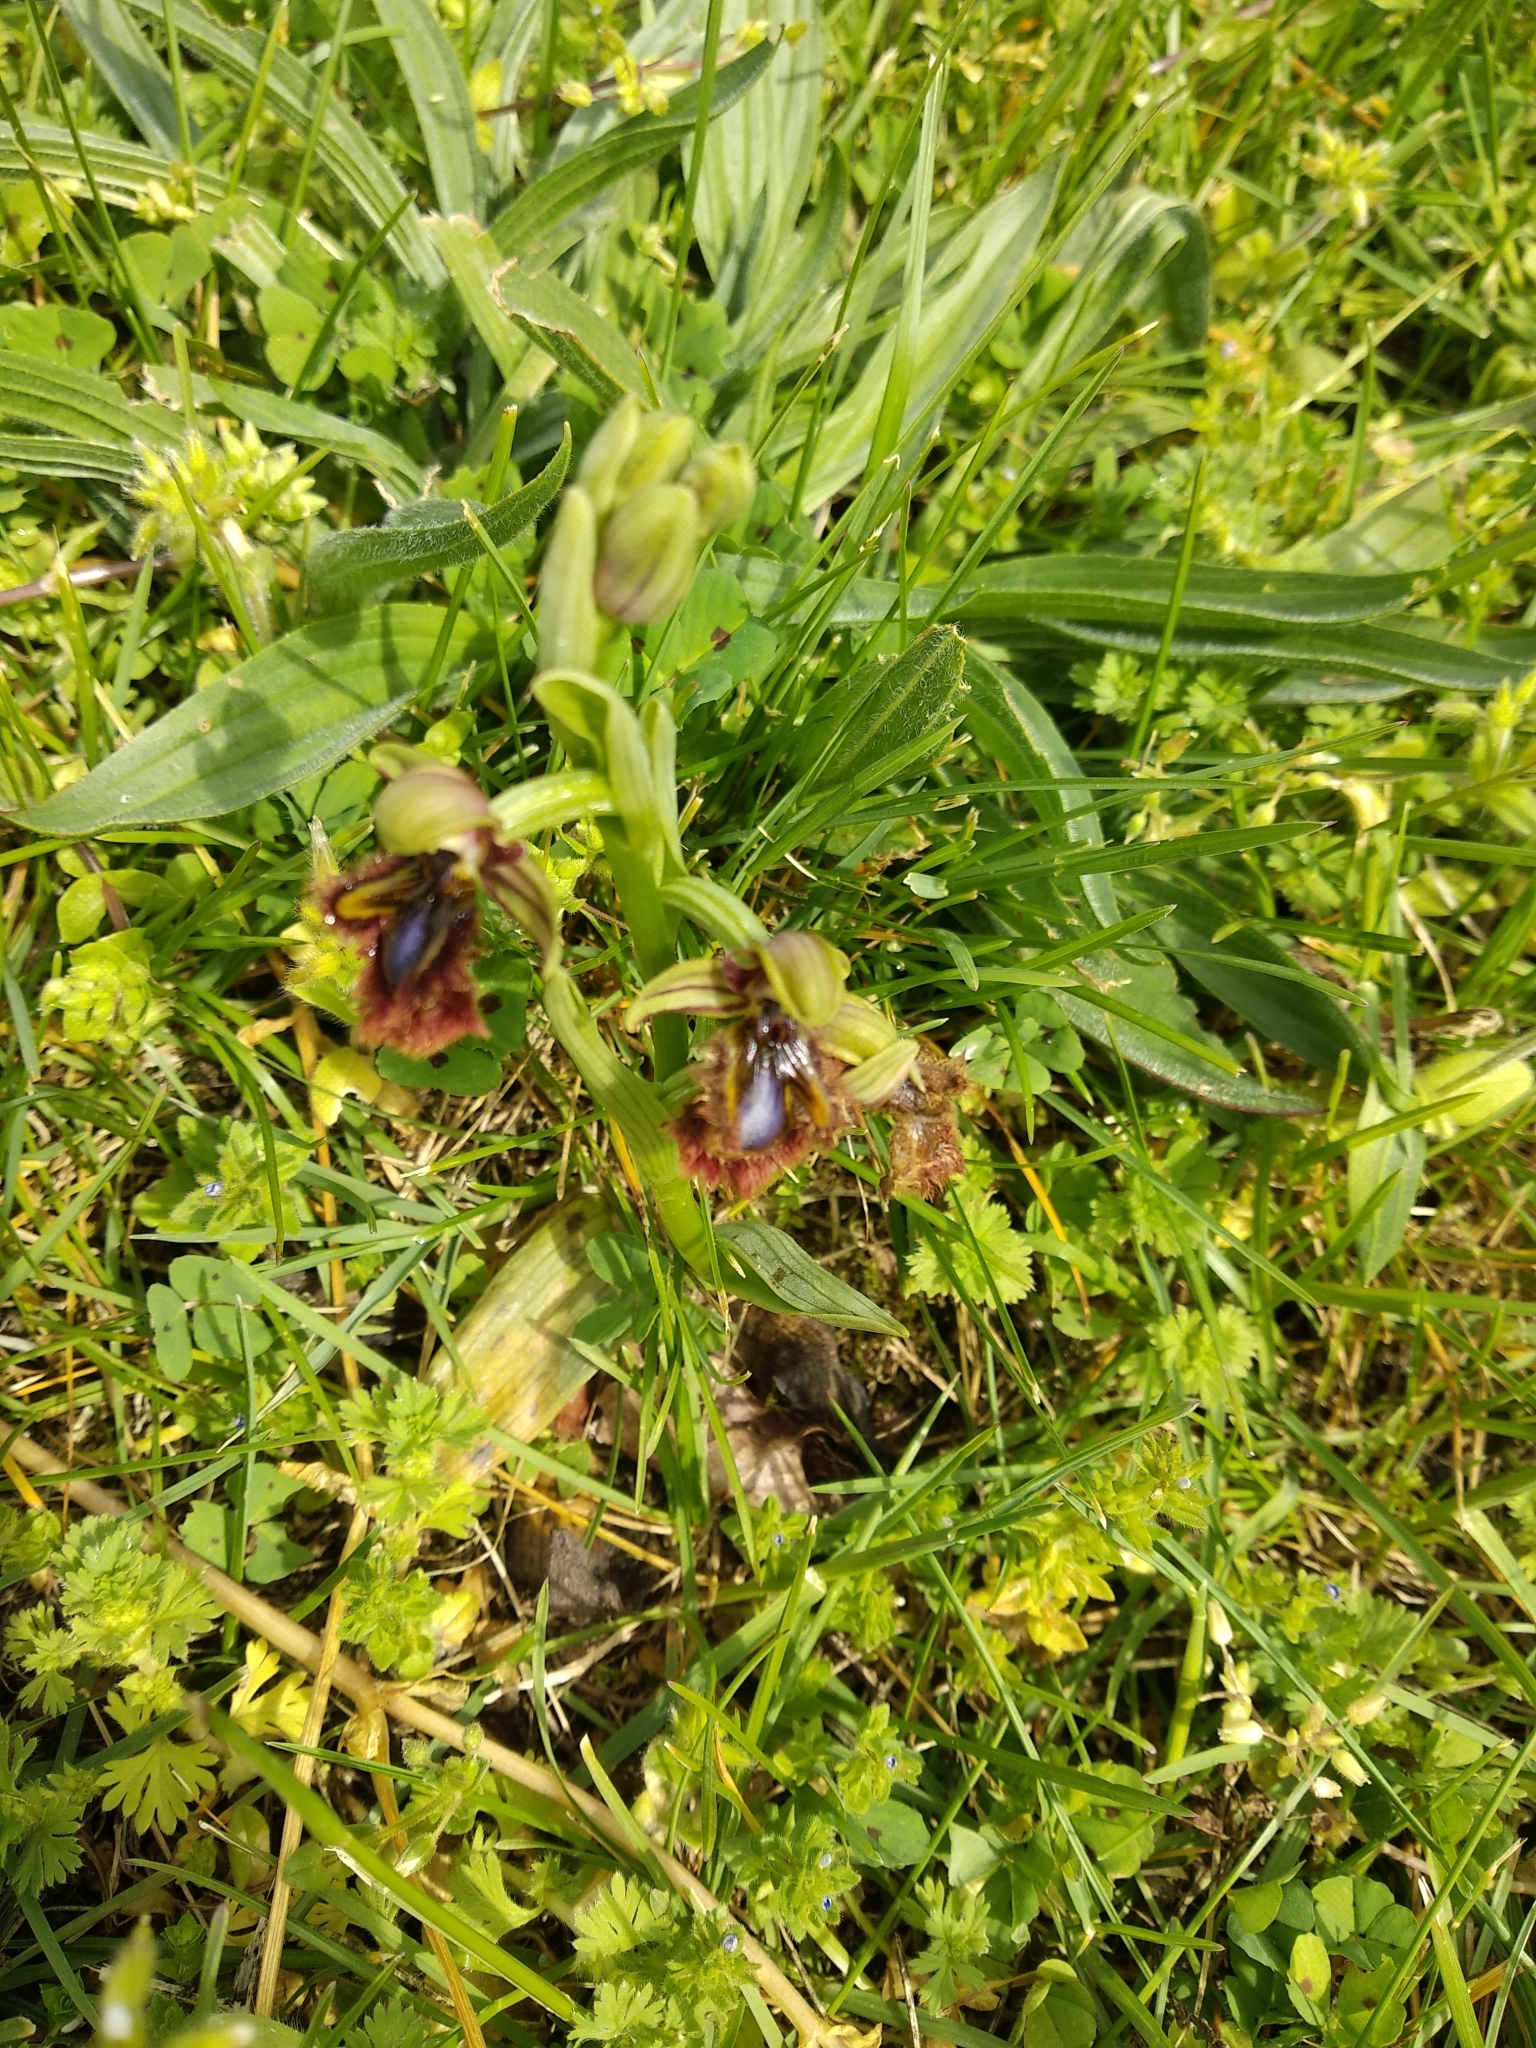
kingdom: Plantae
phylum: Tracheophyta
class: Liliopsida
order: Asparagales
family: Orchidaceae
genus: Ophrys
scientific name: Ophrys speculum
